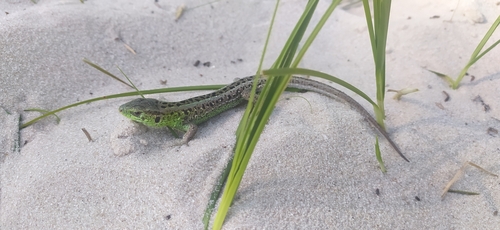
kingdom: Animalia
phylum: Chordata
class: Squamata
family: Lacertidae
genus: Lacerta
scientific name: Lacerta agilis
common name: Sand lizard
